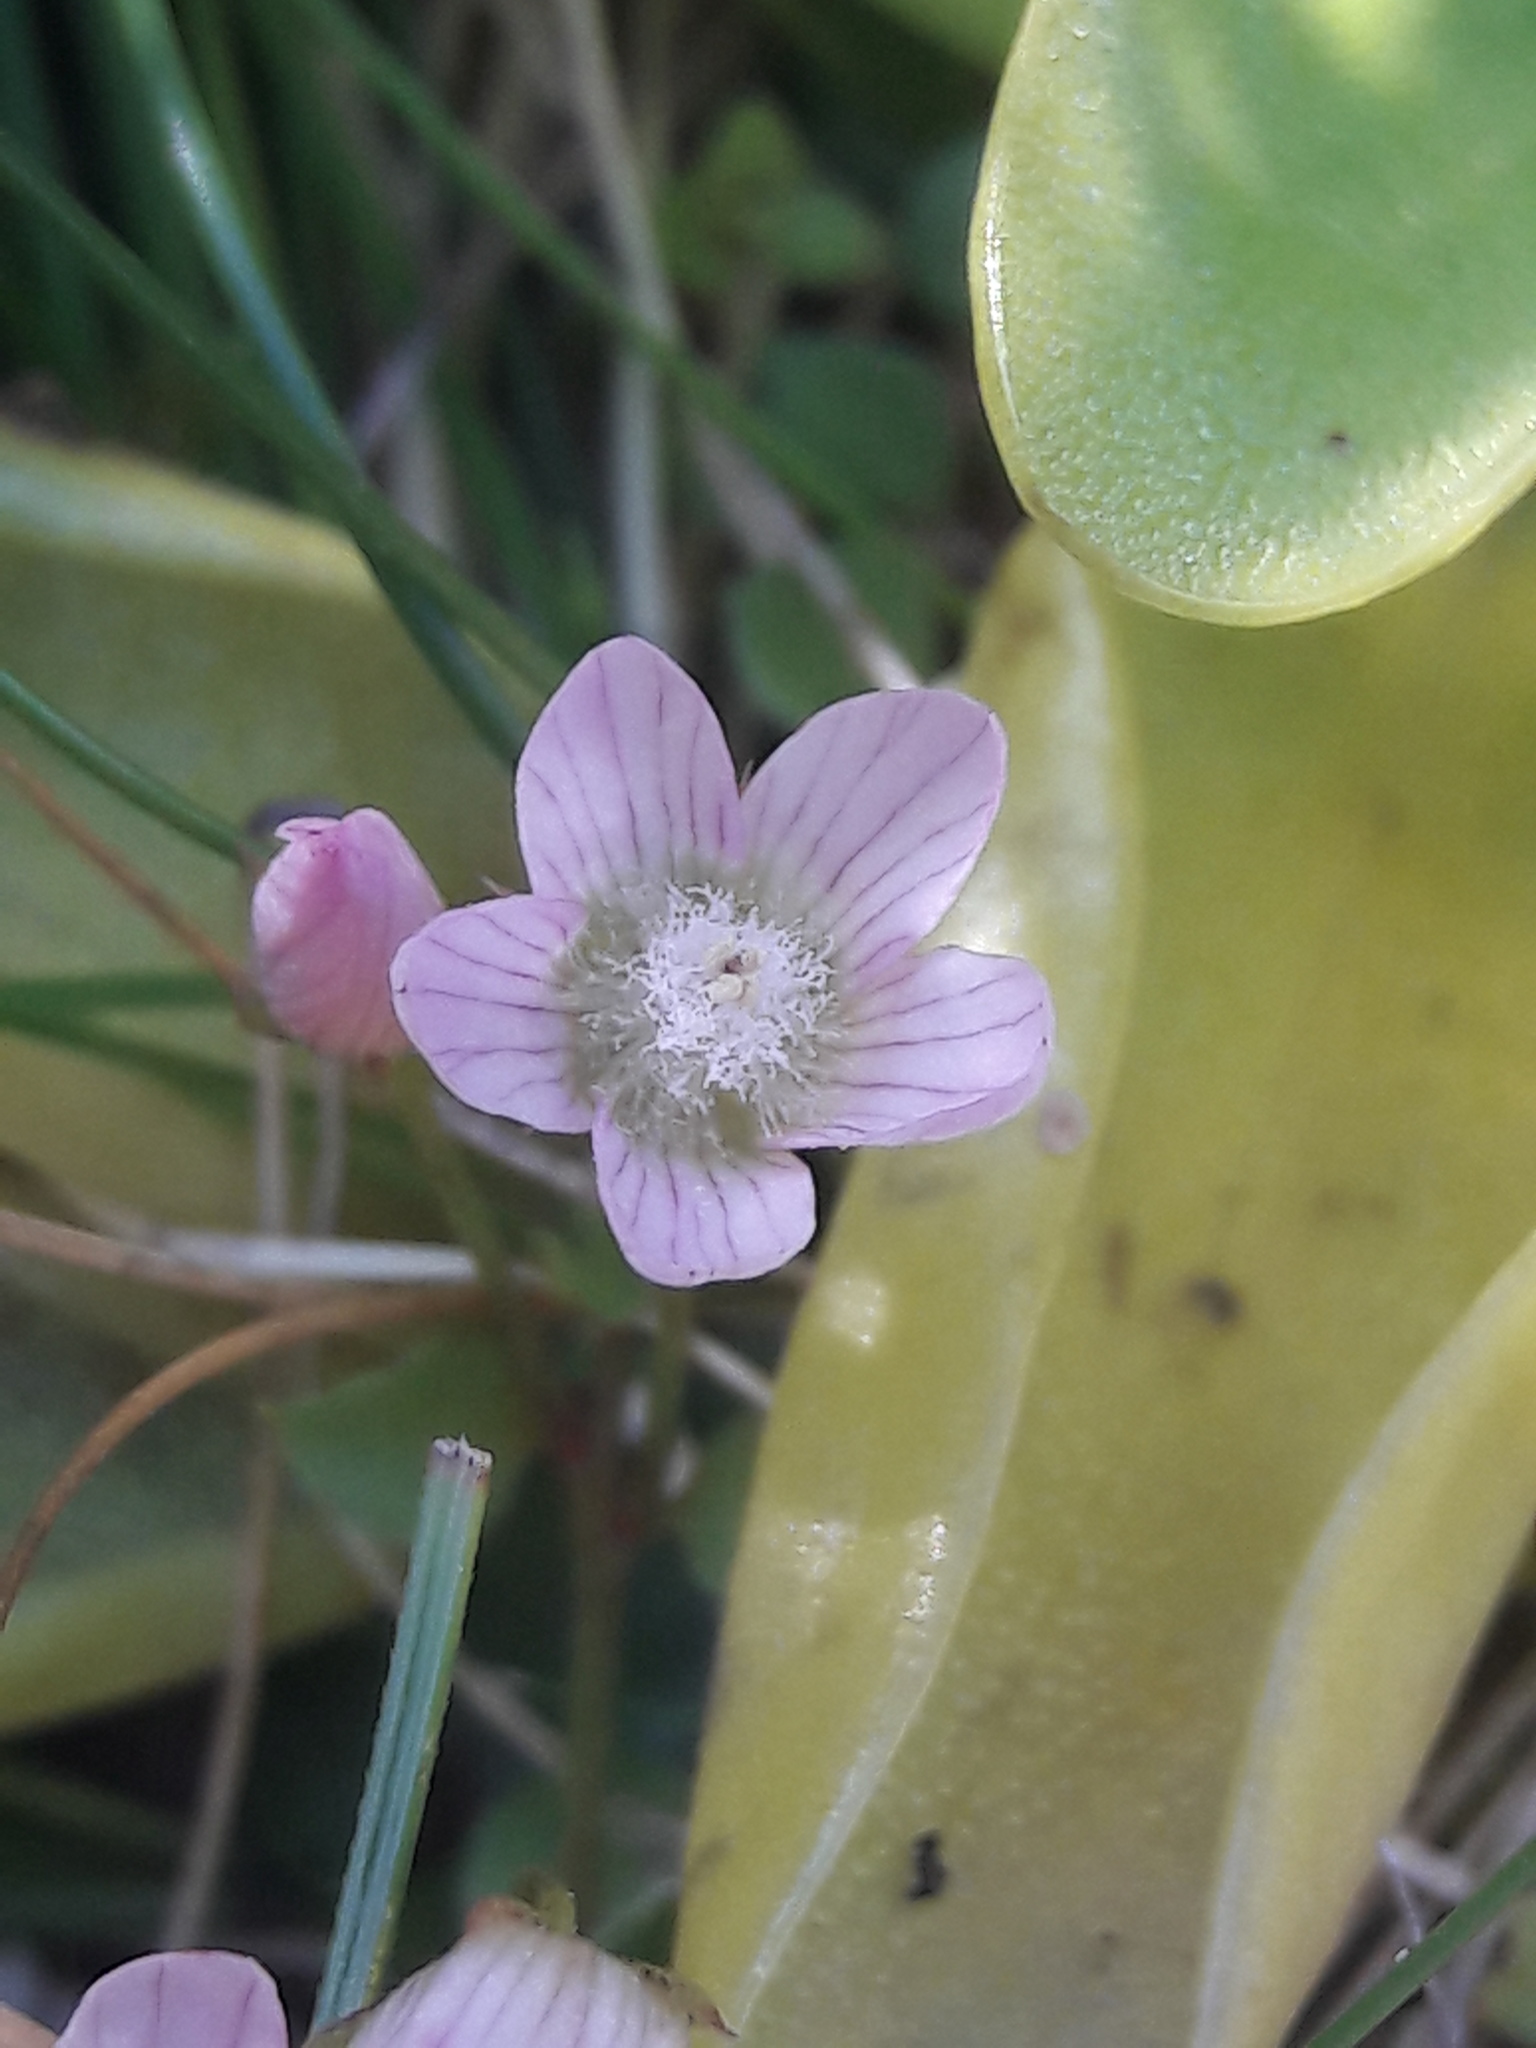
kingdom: Plantae
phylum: Tracheophyta
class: Magnoliopsida
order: Ericales
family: Primulaceae
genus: Lysimachia
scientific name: Lysimachia tenella
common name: European bog pimpernel
